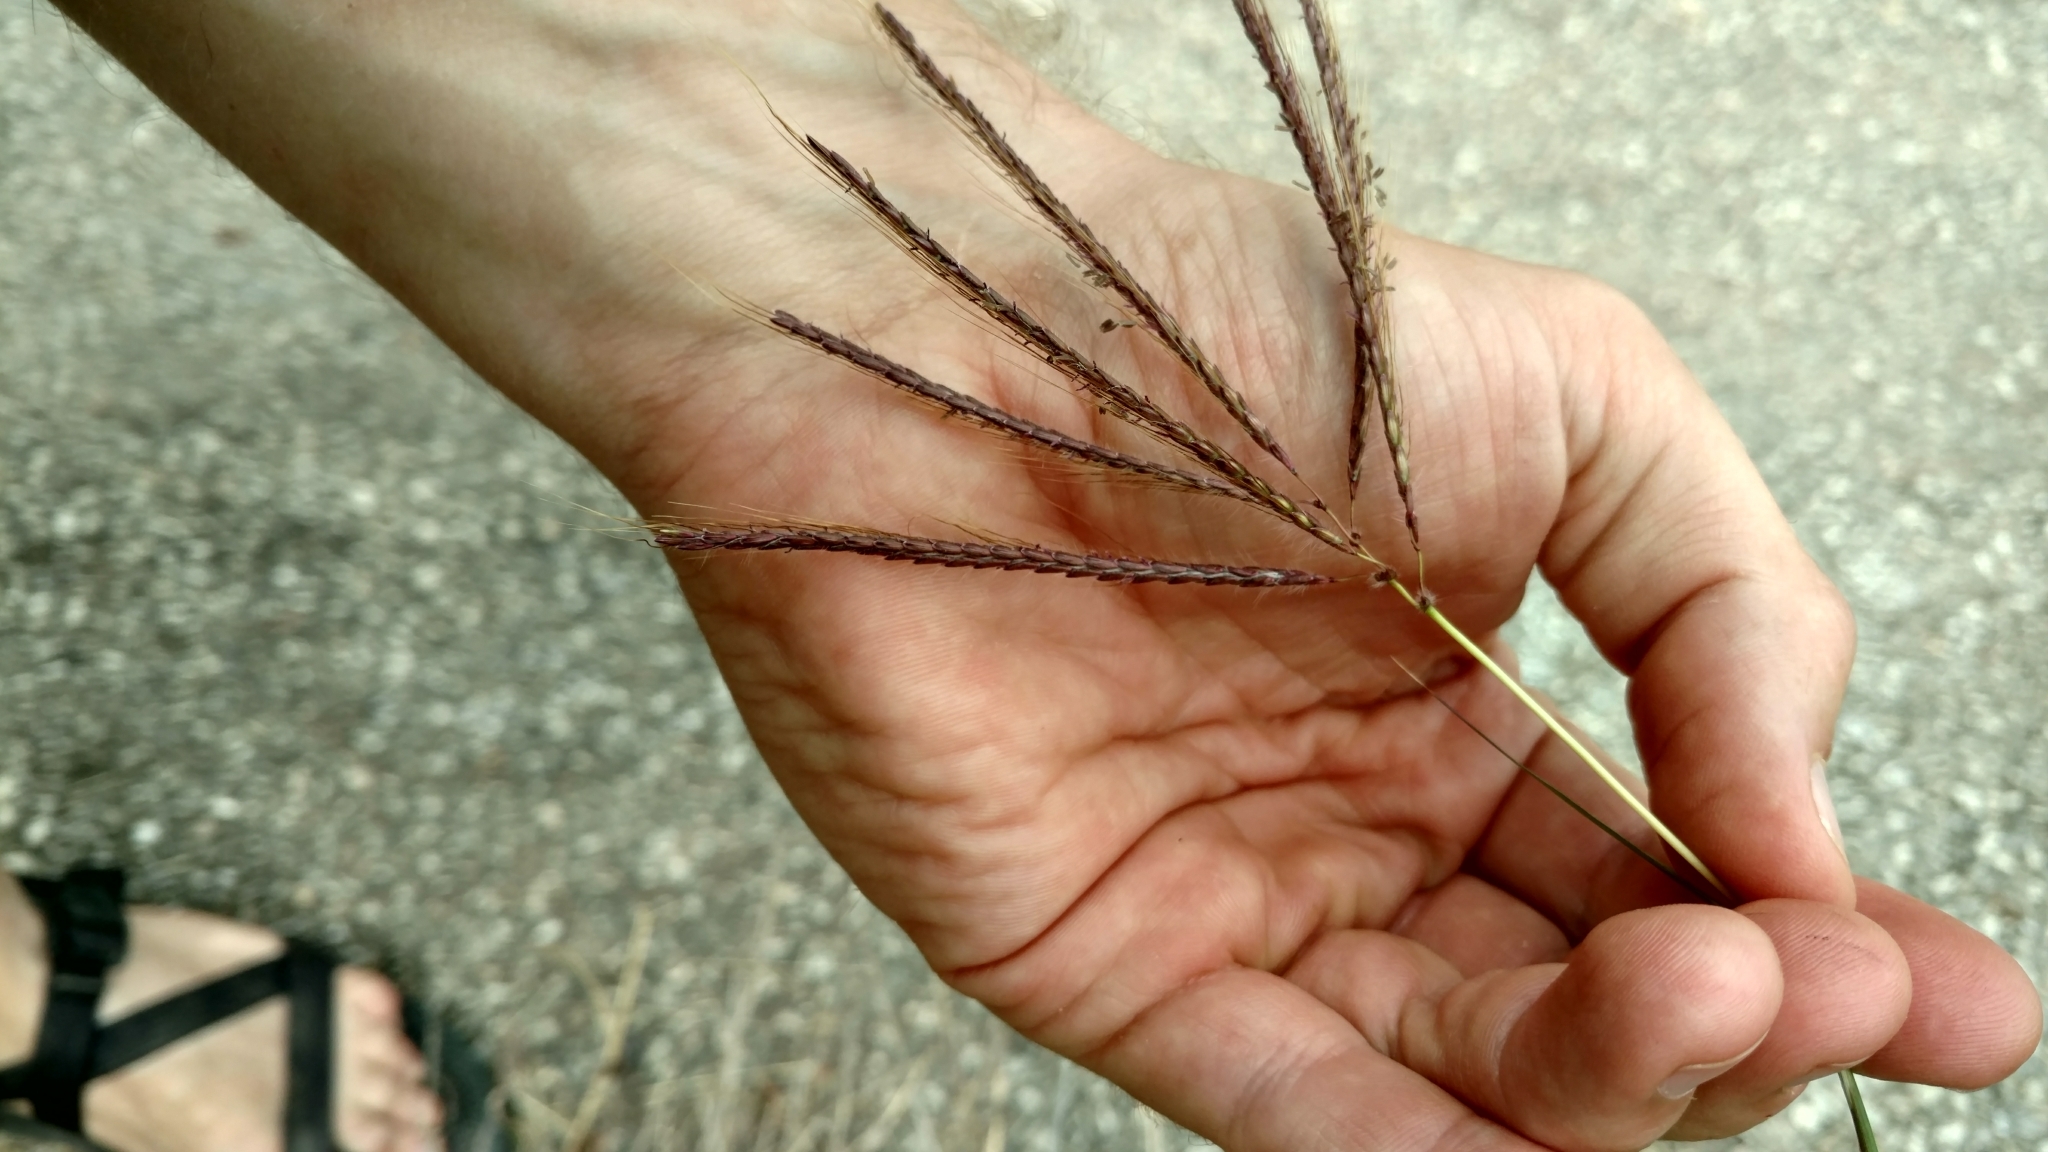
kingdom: Plantae
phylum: Tracheophyta
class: Liliopsida
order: Poales
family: Poaceae
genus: Dichanthium
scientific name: Dichanthium annulatum
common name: Kleberg's bluestem
